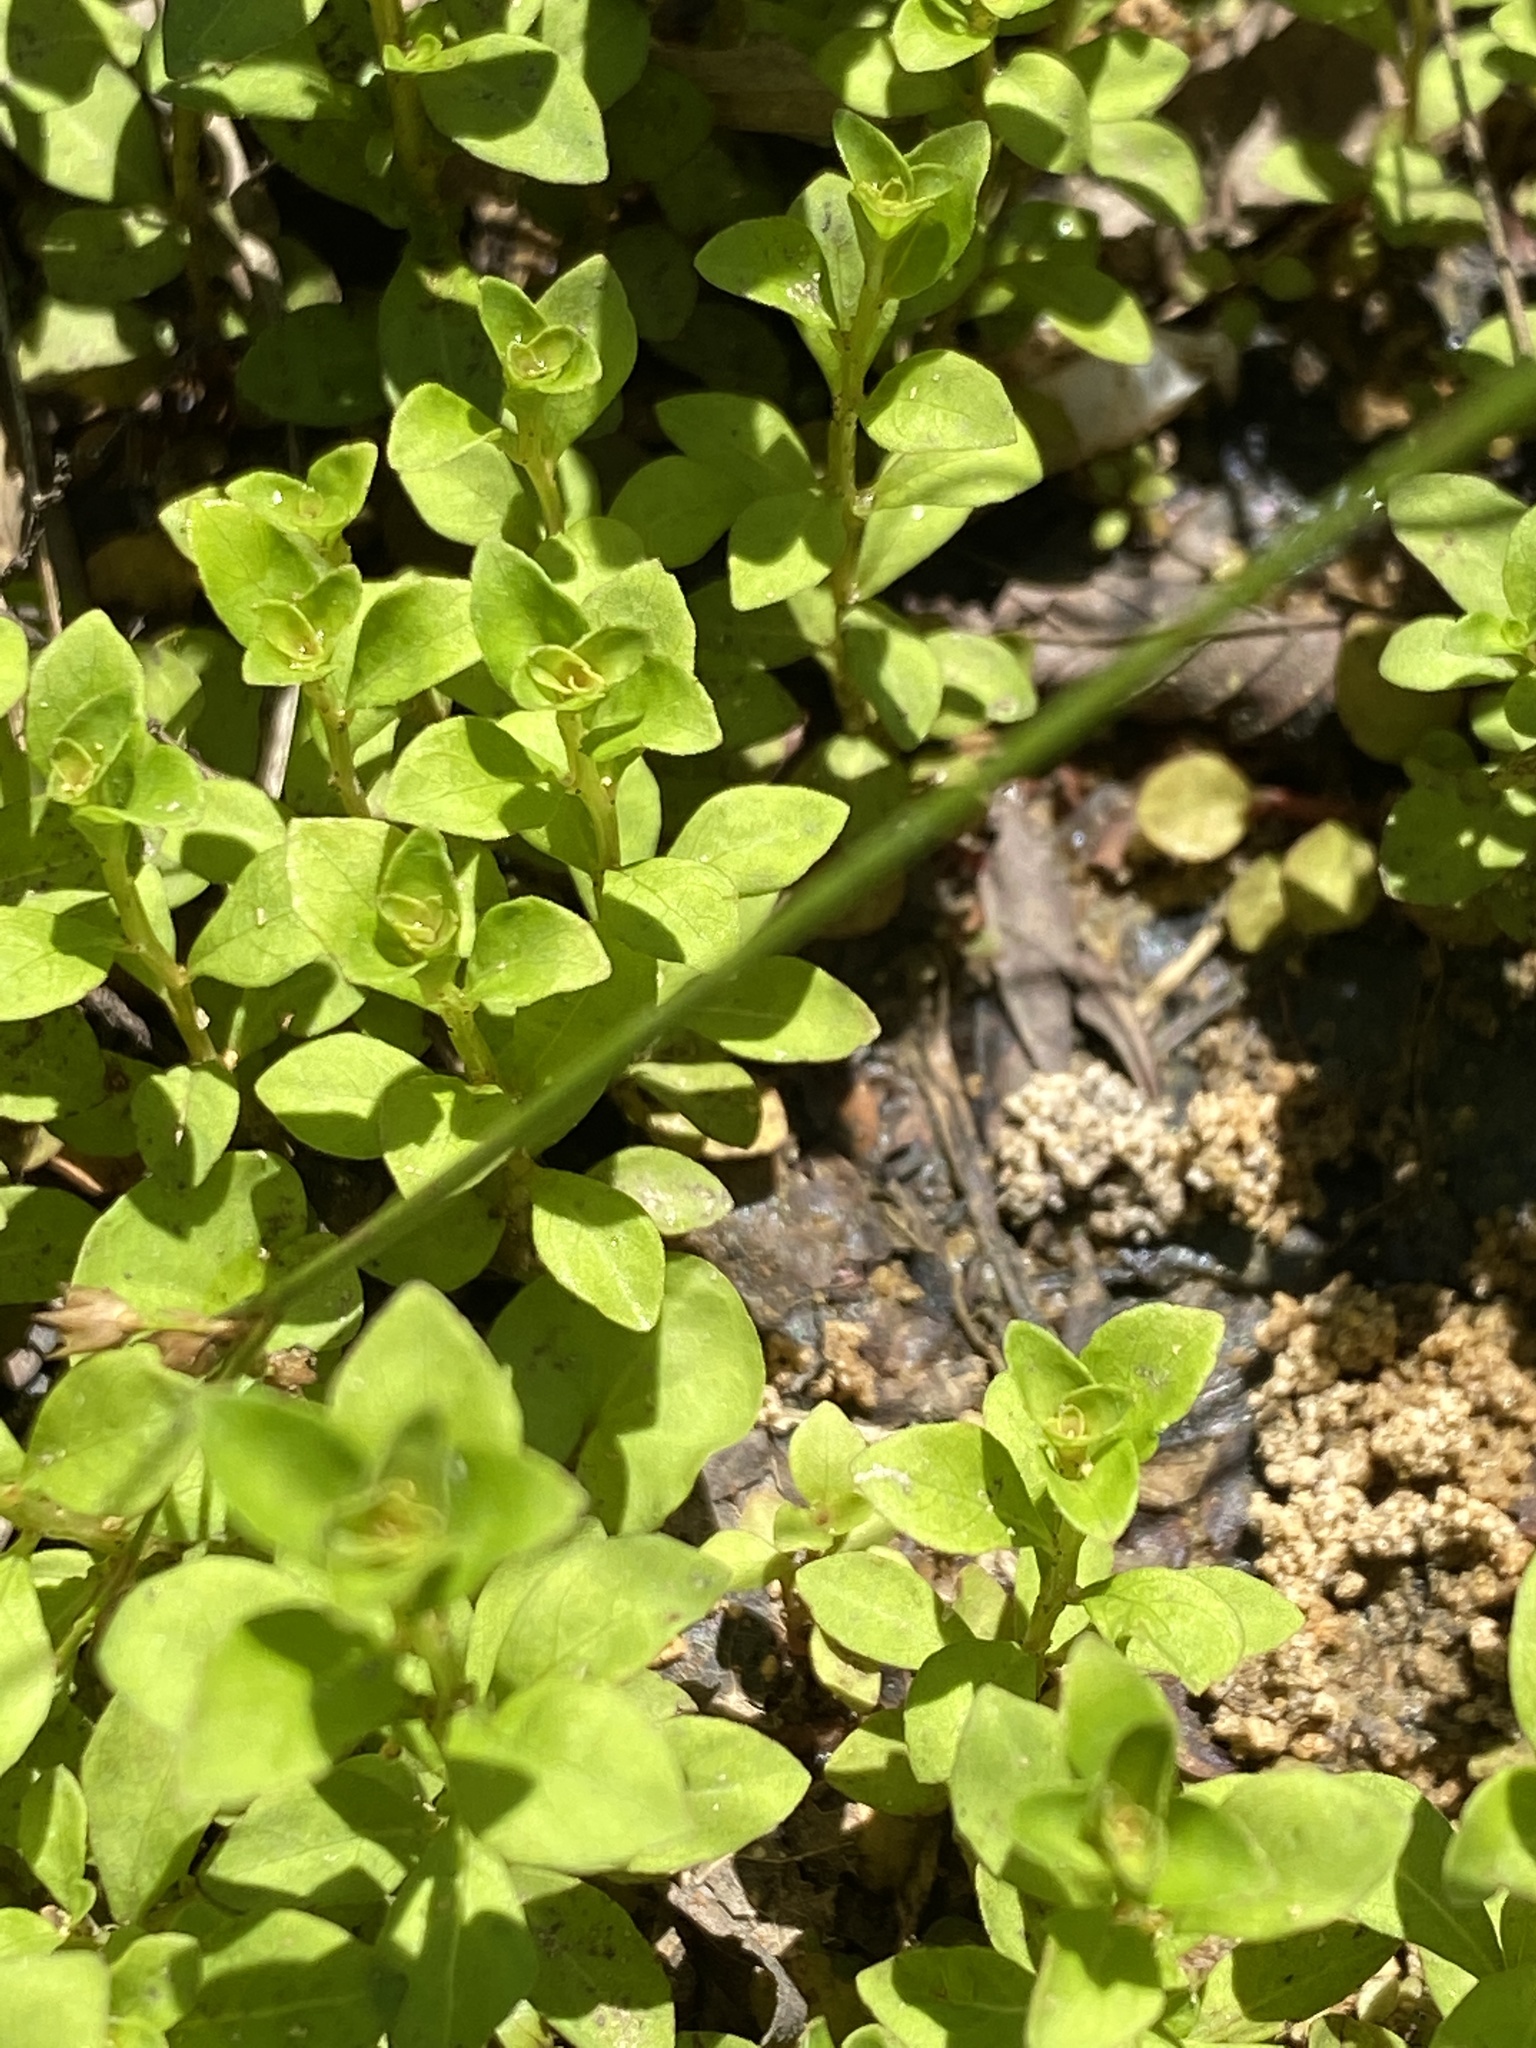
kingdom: Plantae
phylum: Tracheophyta
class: Magnoliopsida
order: Myrtales
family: Onagraceae
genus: Ludwigia
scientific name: Ludwigia microcarpa
